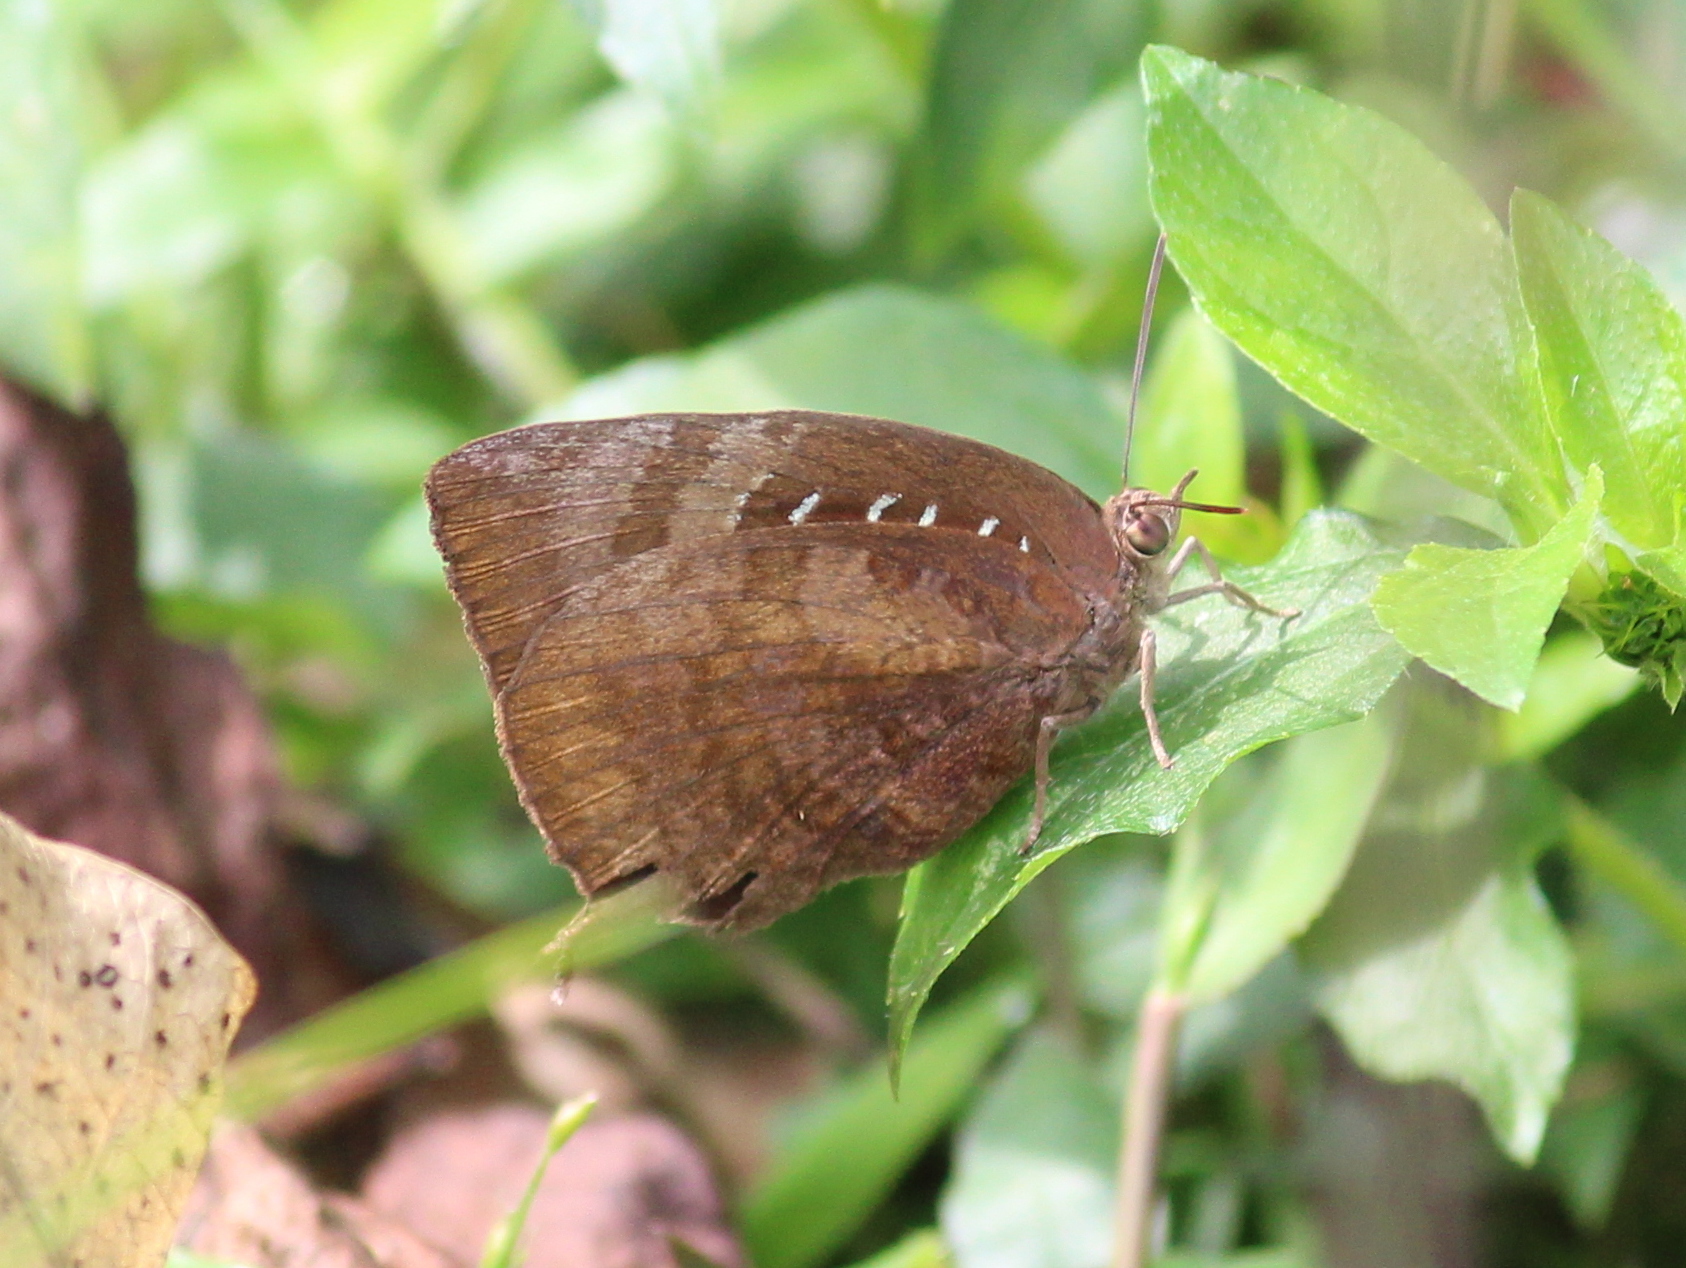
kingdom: Animalia
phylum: Arthropoda
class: Insecta
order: Lepidoptera
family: Lycaenidae
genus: Arhopala
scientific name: Arhopala centaurus
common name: Dull oak-blue
